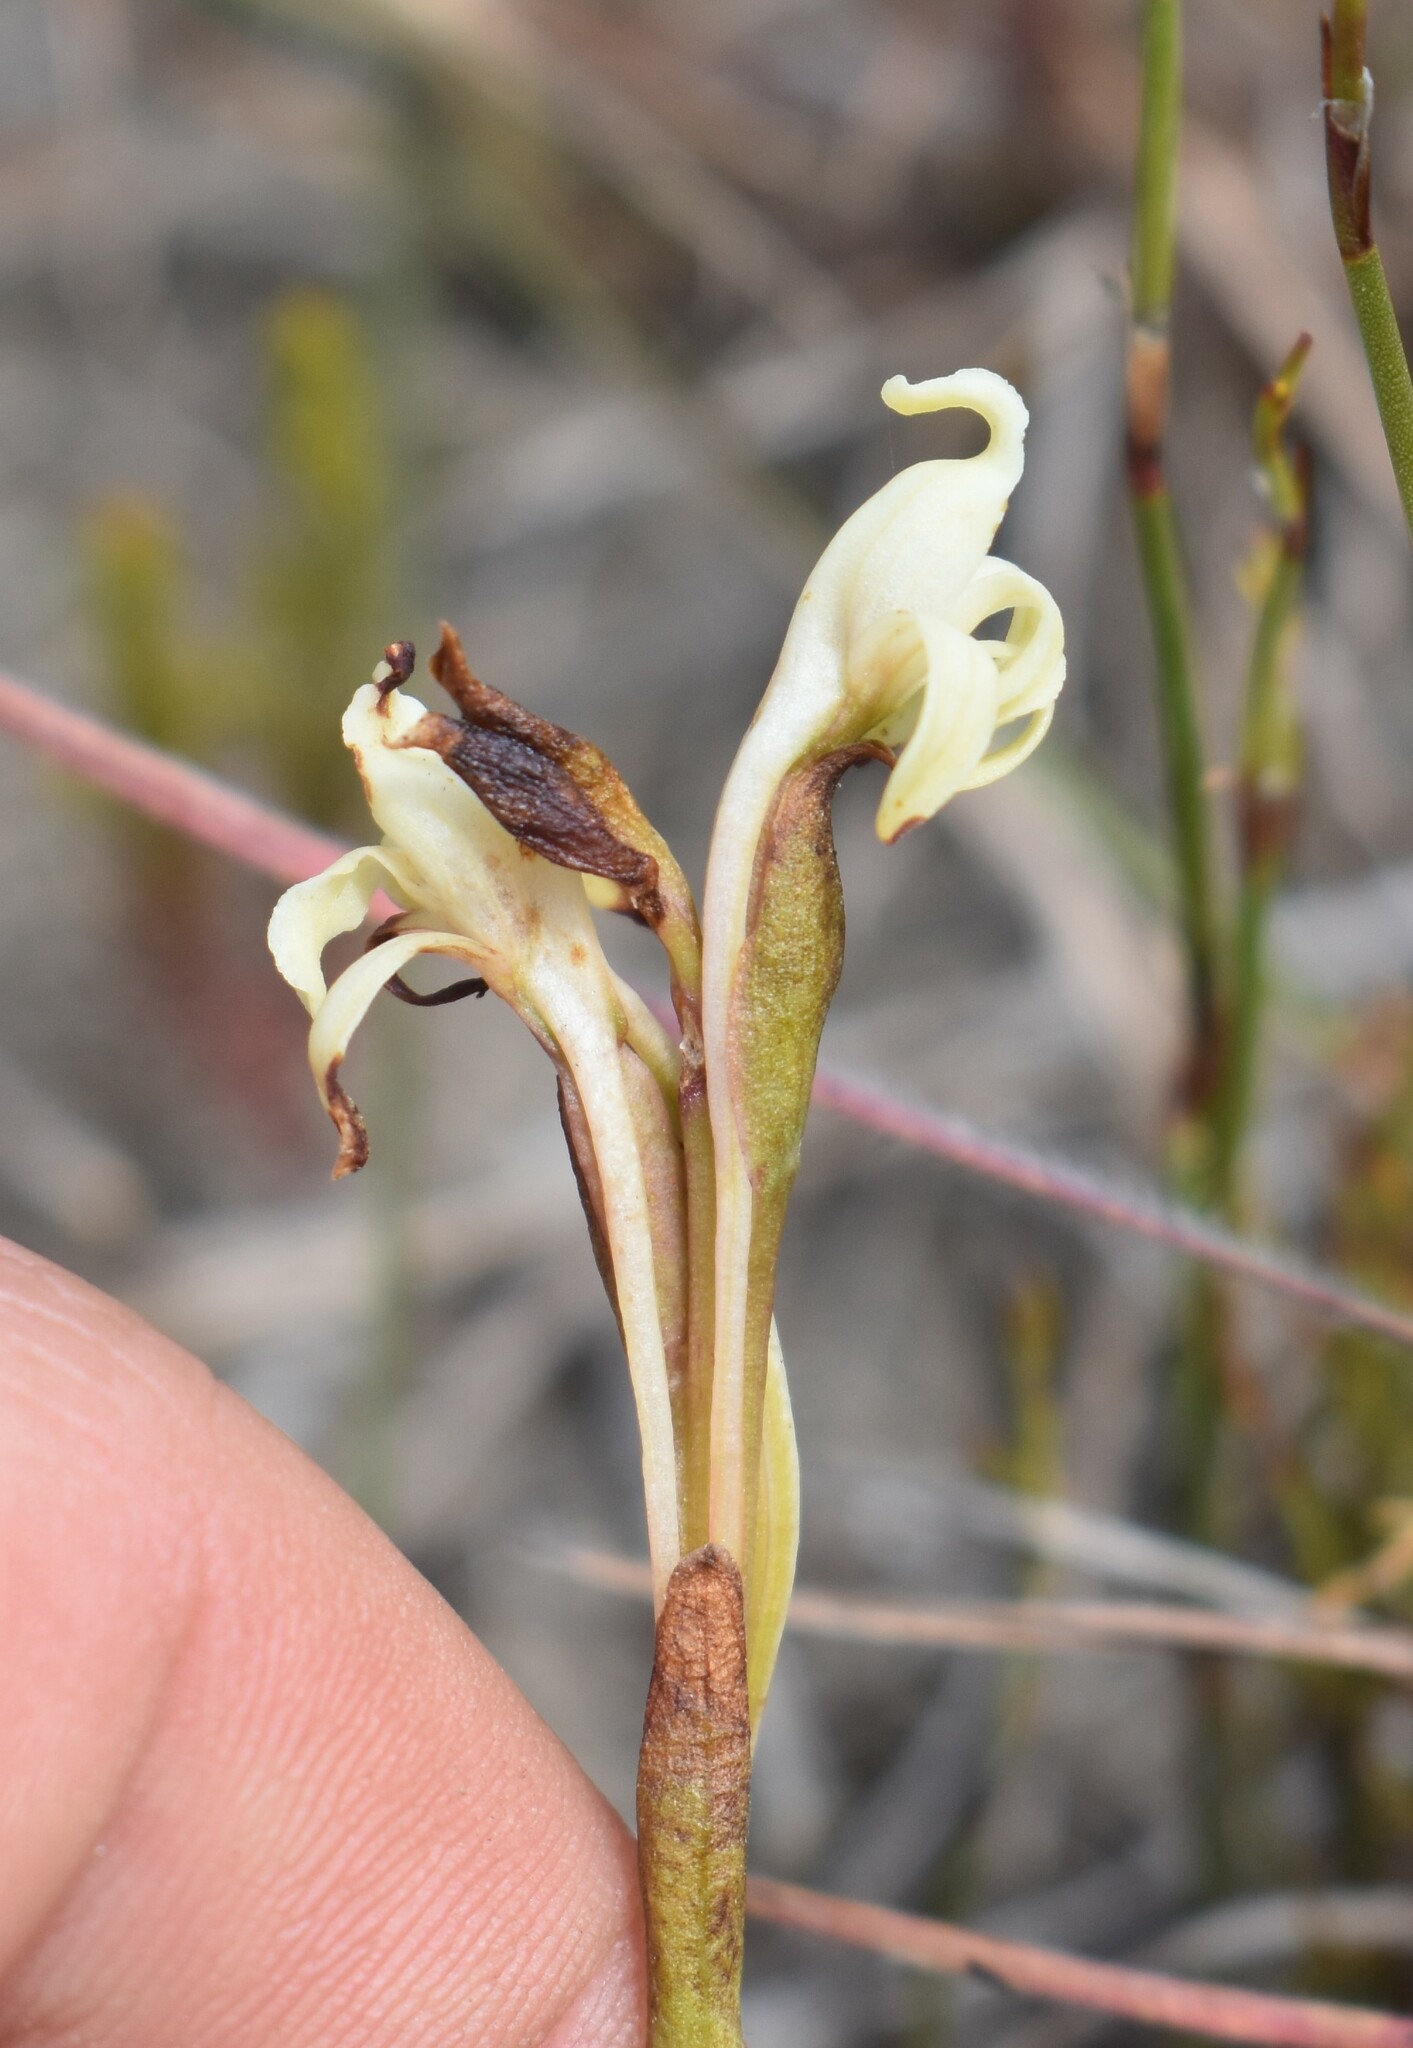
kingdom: Plantae
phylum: Tracheophyta
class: Liliopsida
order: Asparagales
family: Orchidaceae
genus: Satyrium
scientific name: Satyrium stenopetalum
